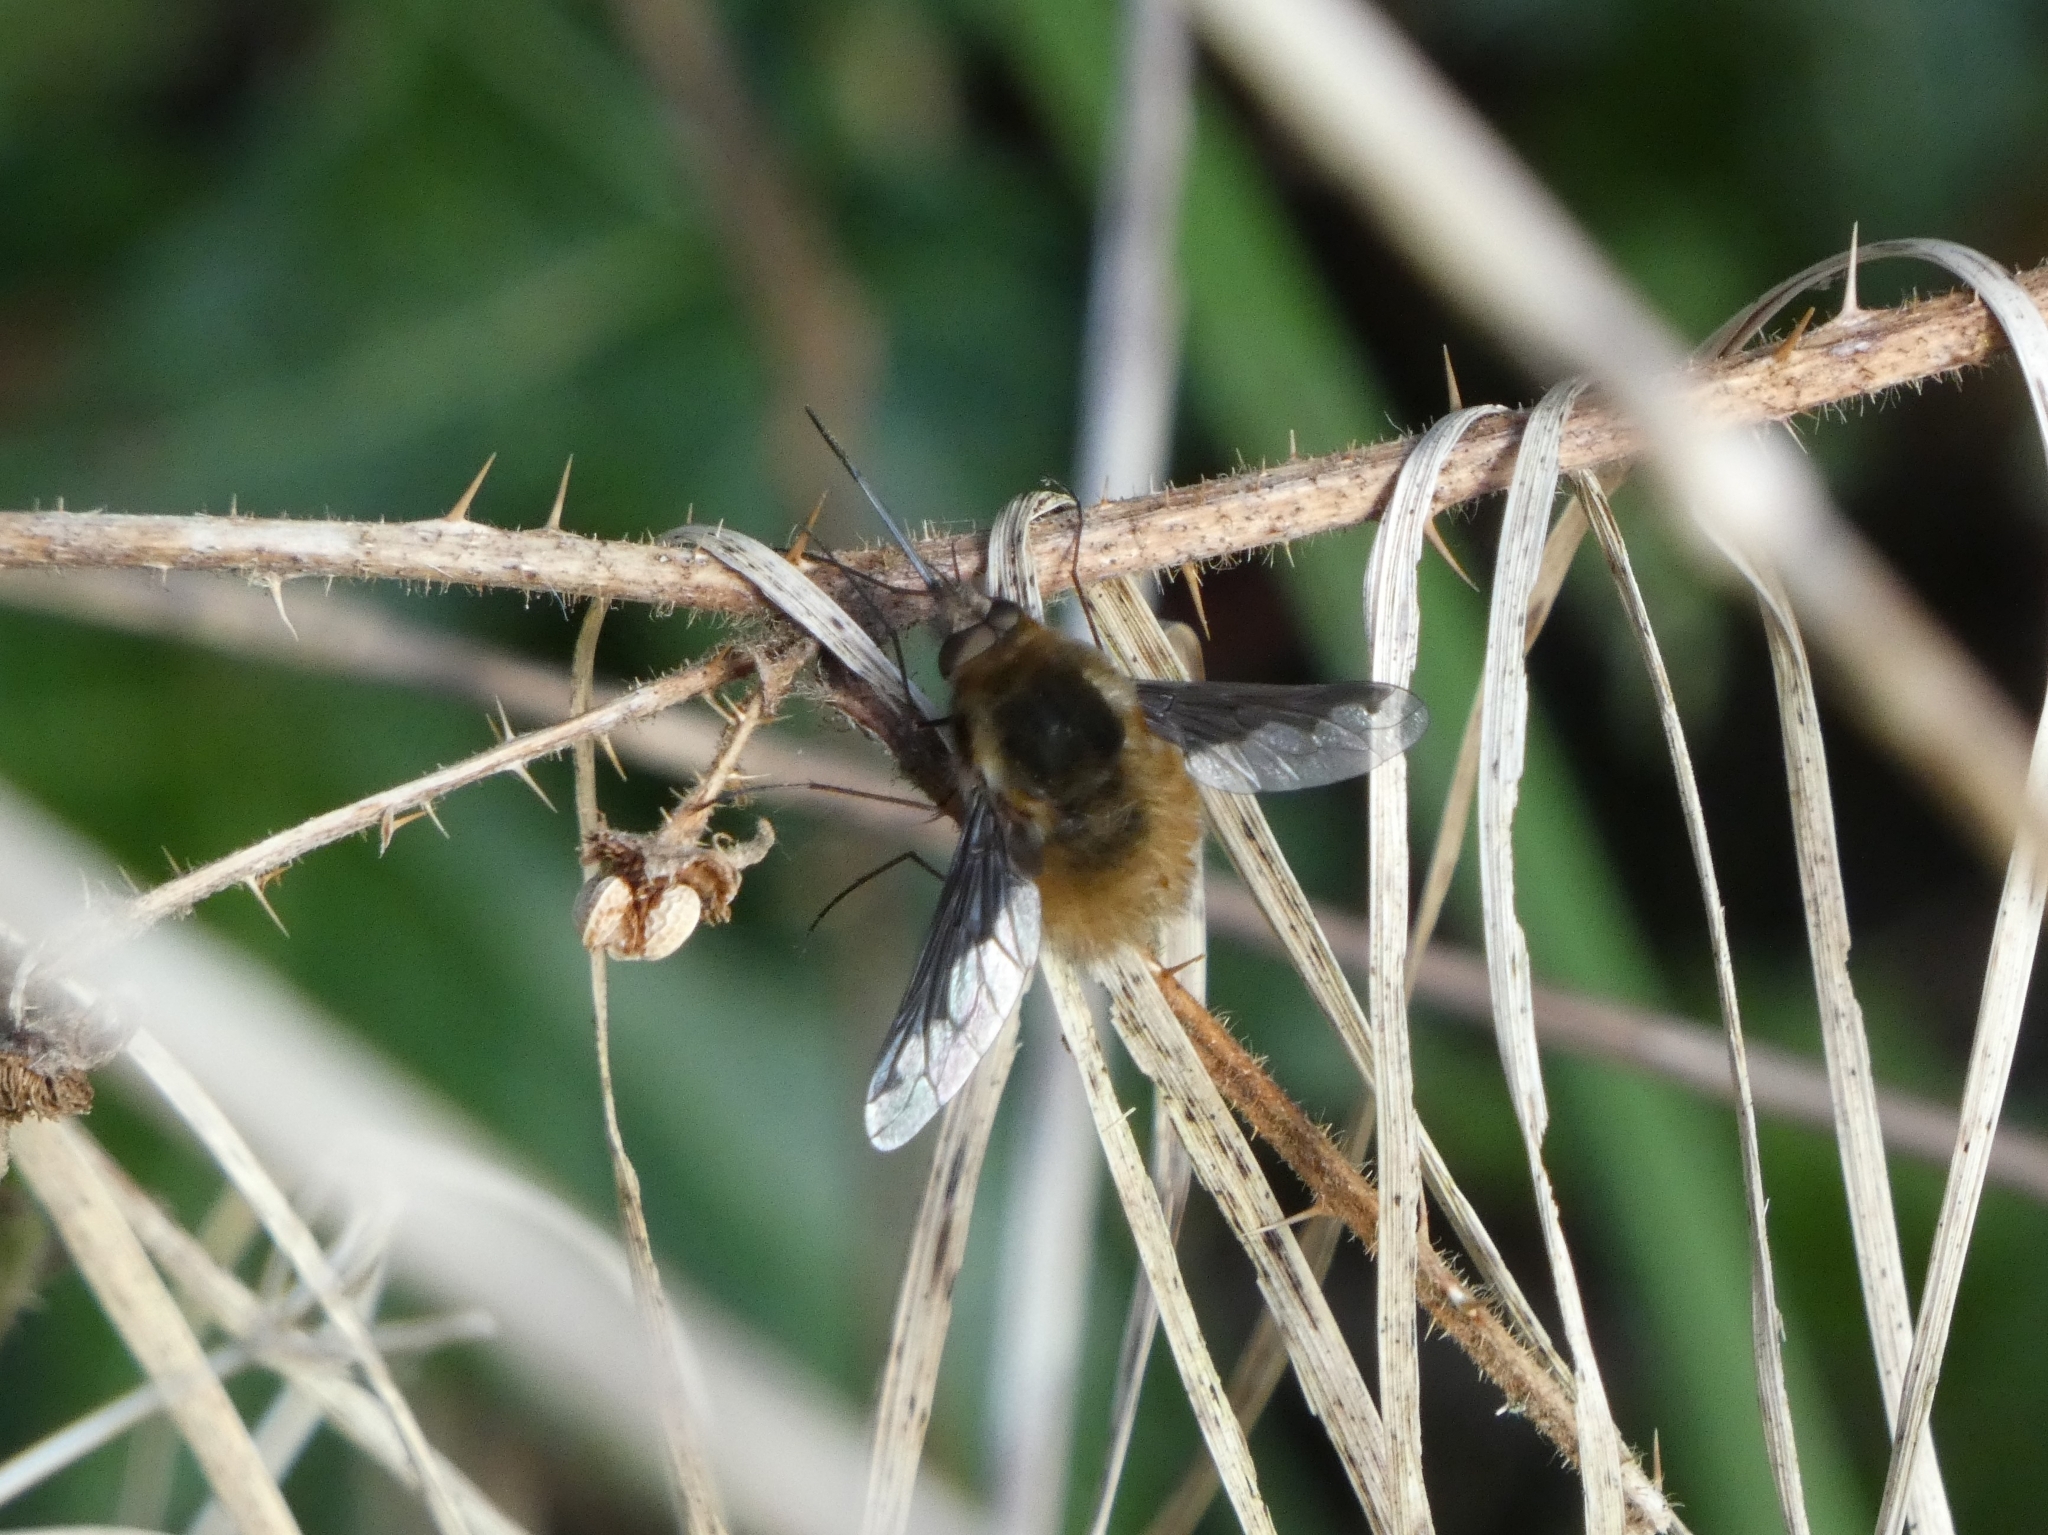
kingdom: Animalia
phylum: Arthropoda
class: Insecta
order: Diptera
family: Bombyliidae
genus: Bombylius
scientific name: Bombylius major
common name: Bee fly
